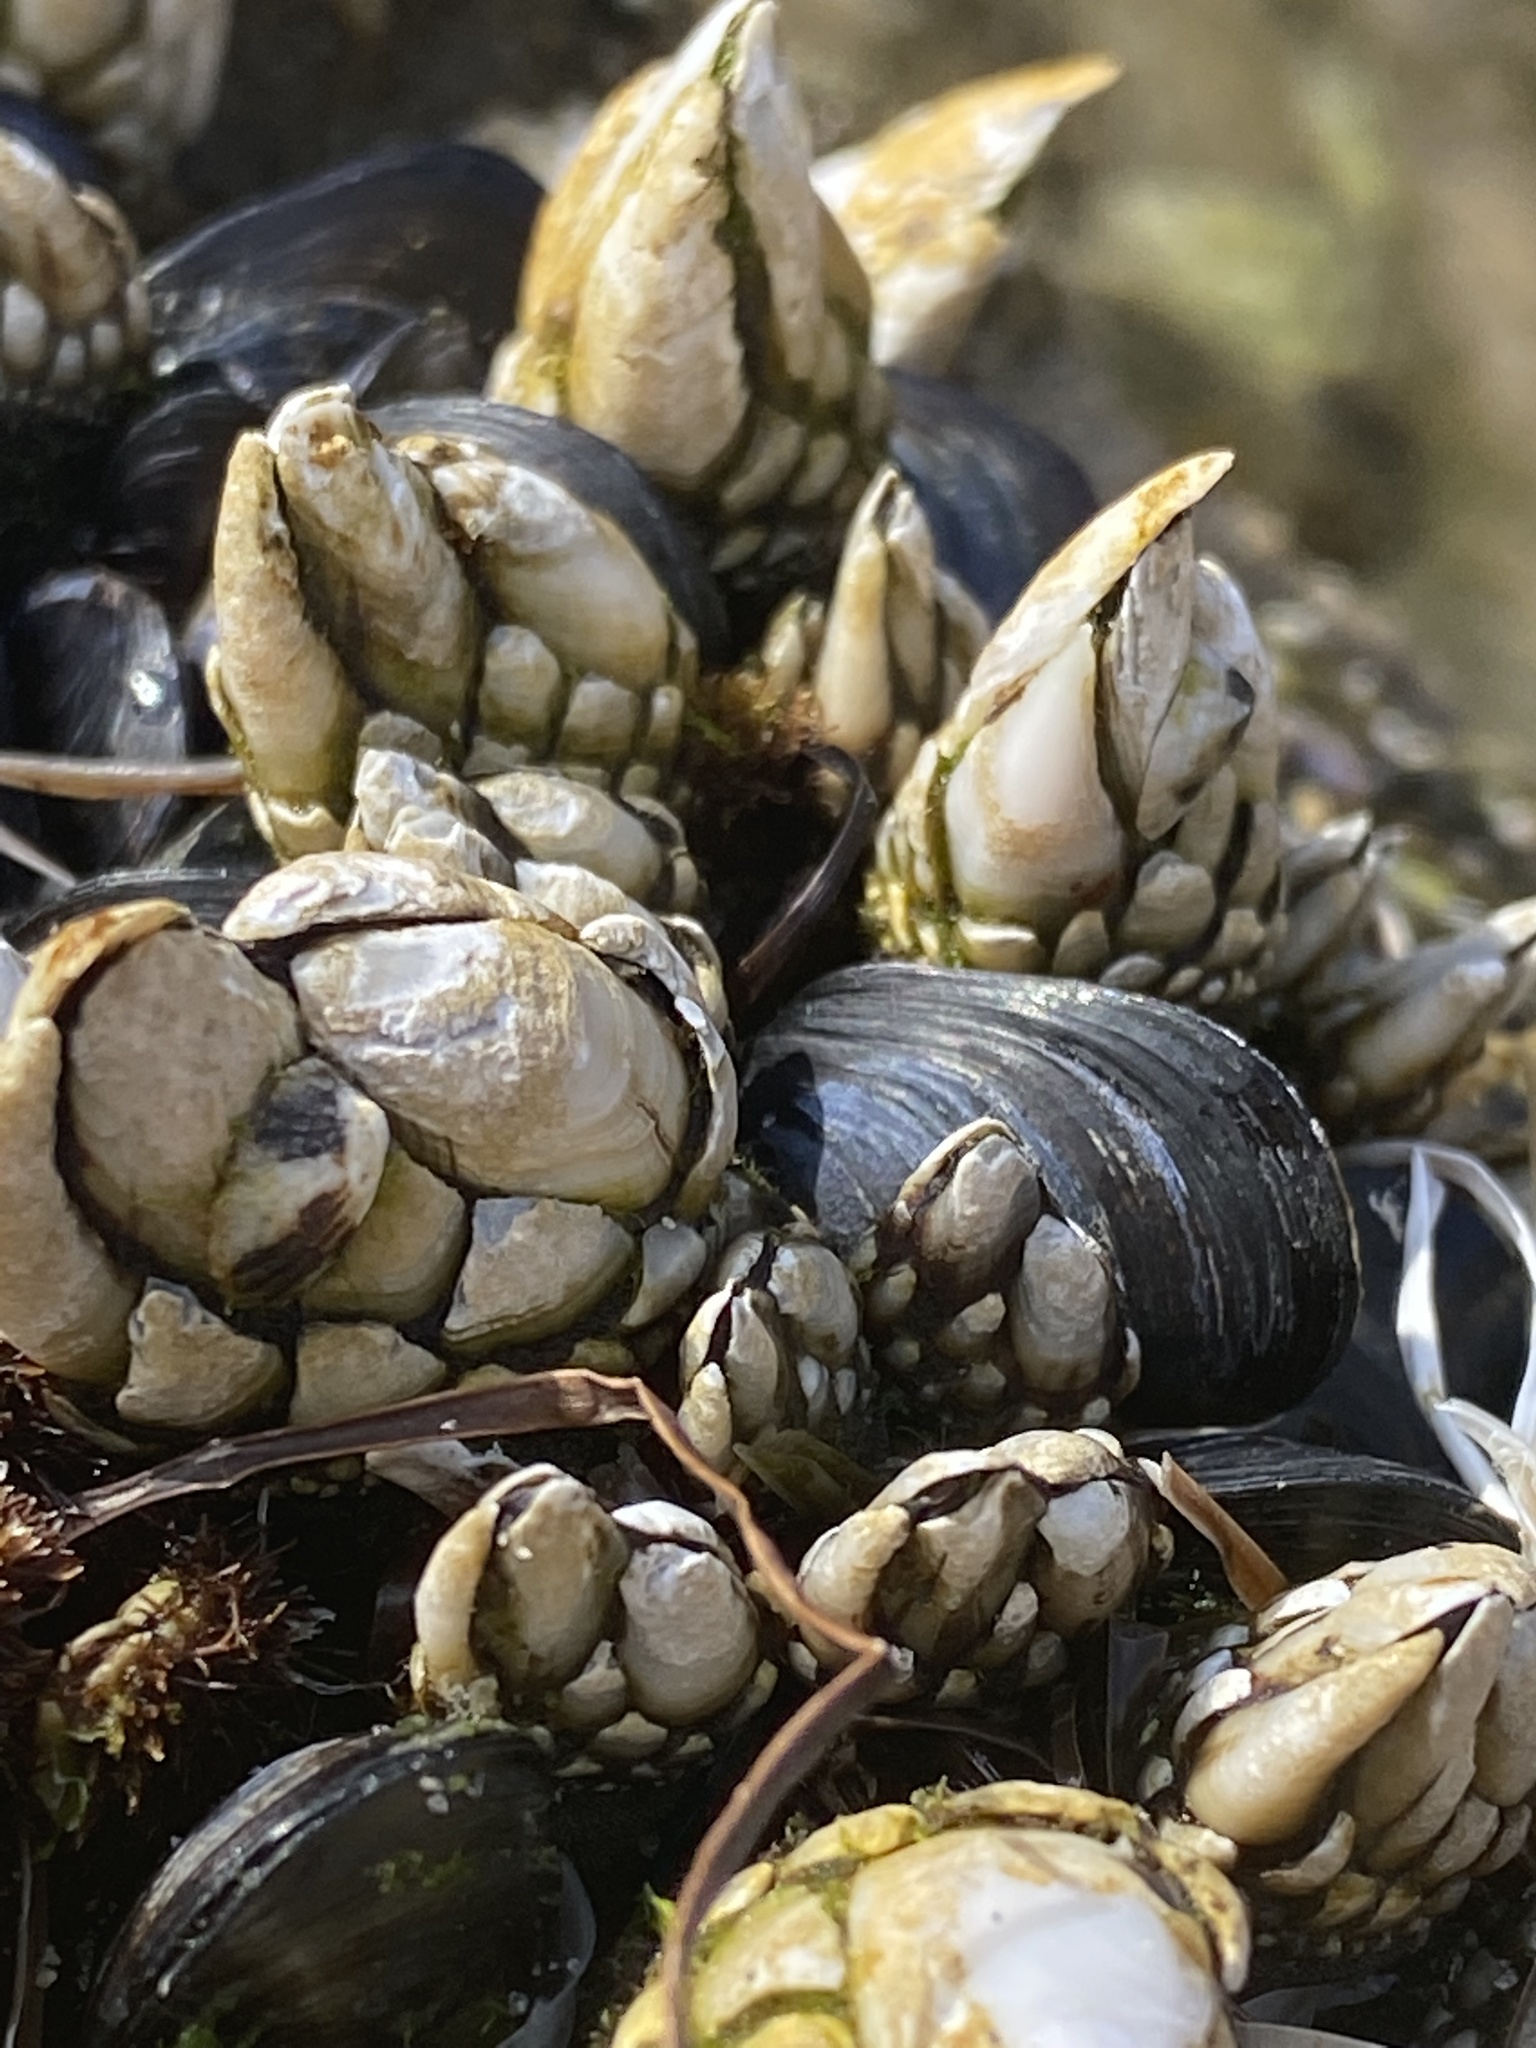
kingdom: Animalia
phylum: Arthropoda
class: Maxillopoda
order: Pedunculata
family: Pollicipedidae
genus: Pollicipes
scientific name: Pollicipes polymerus
